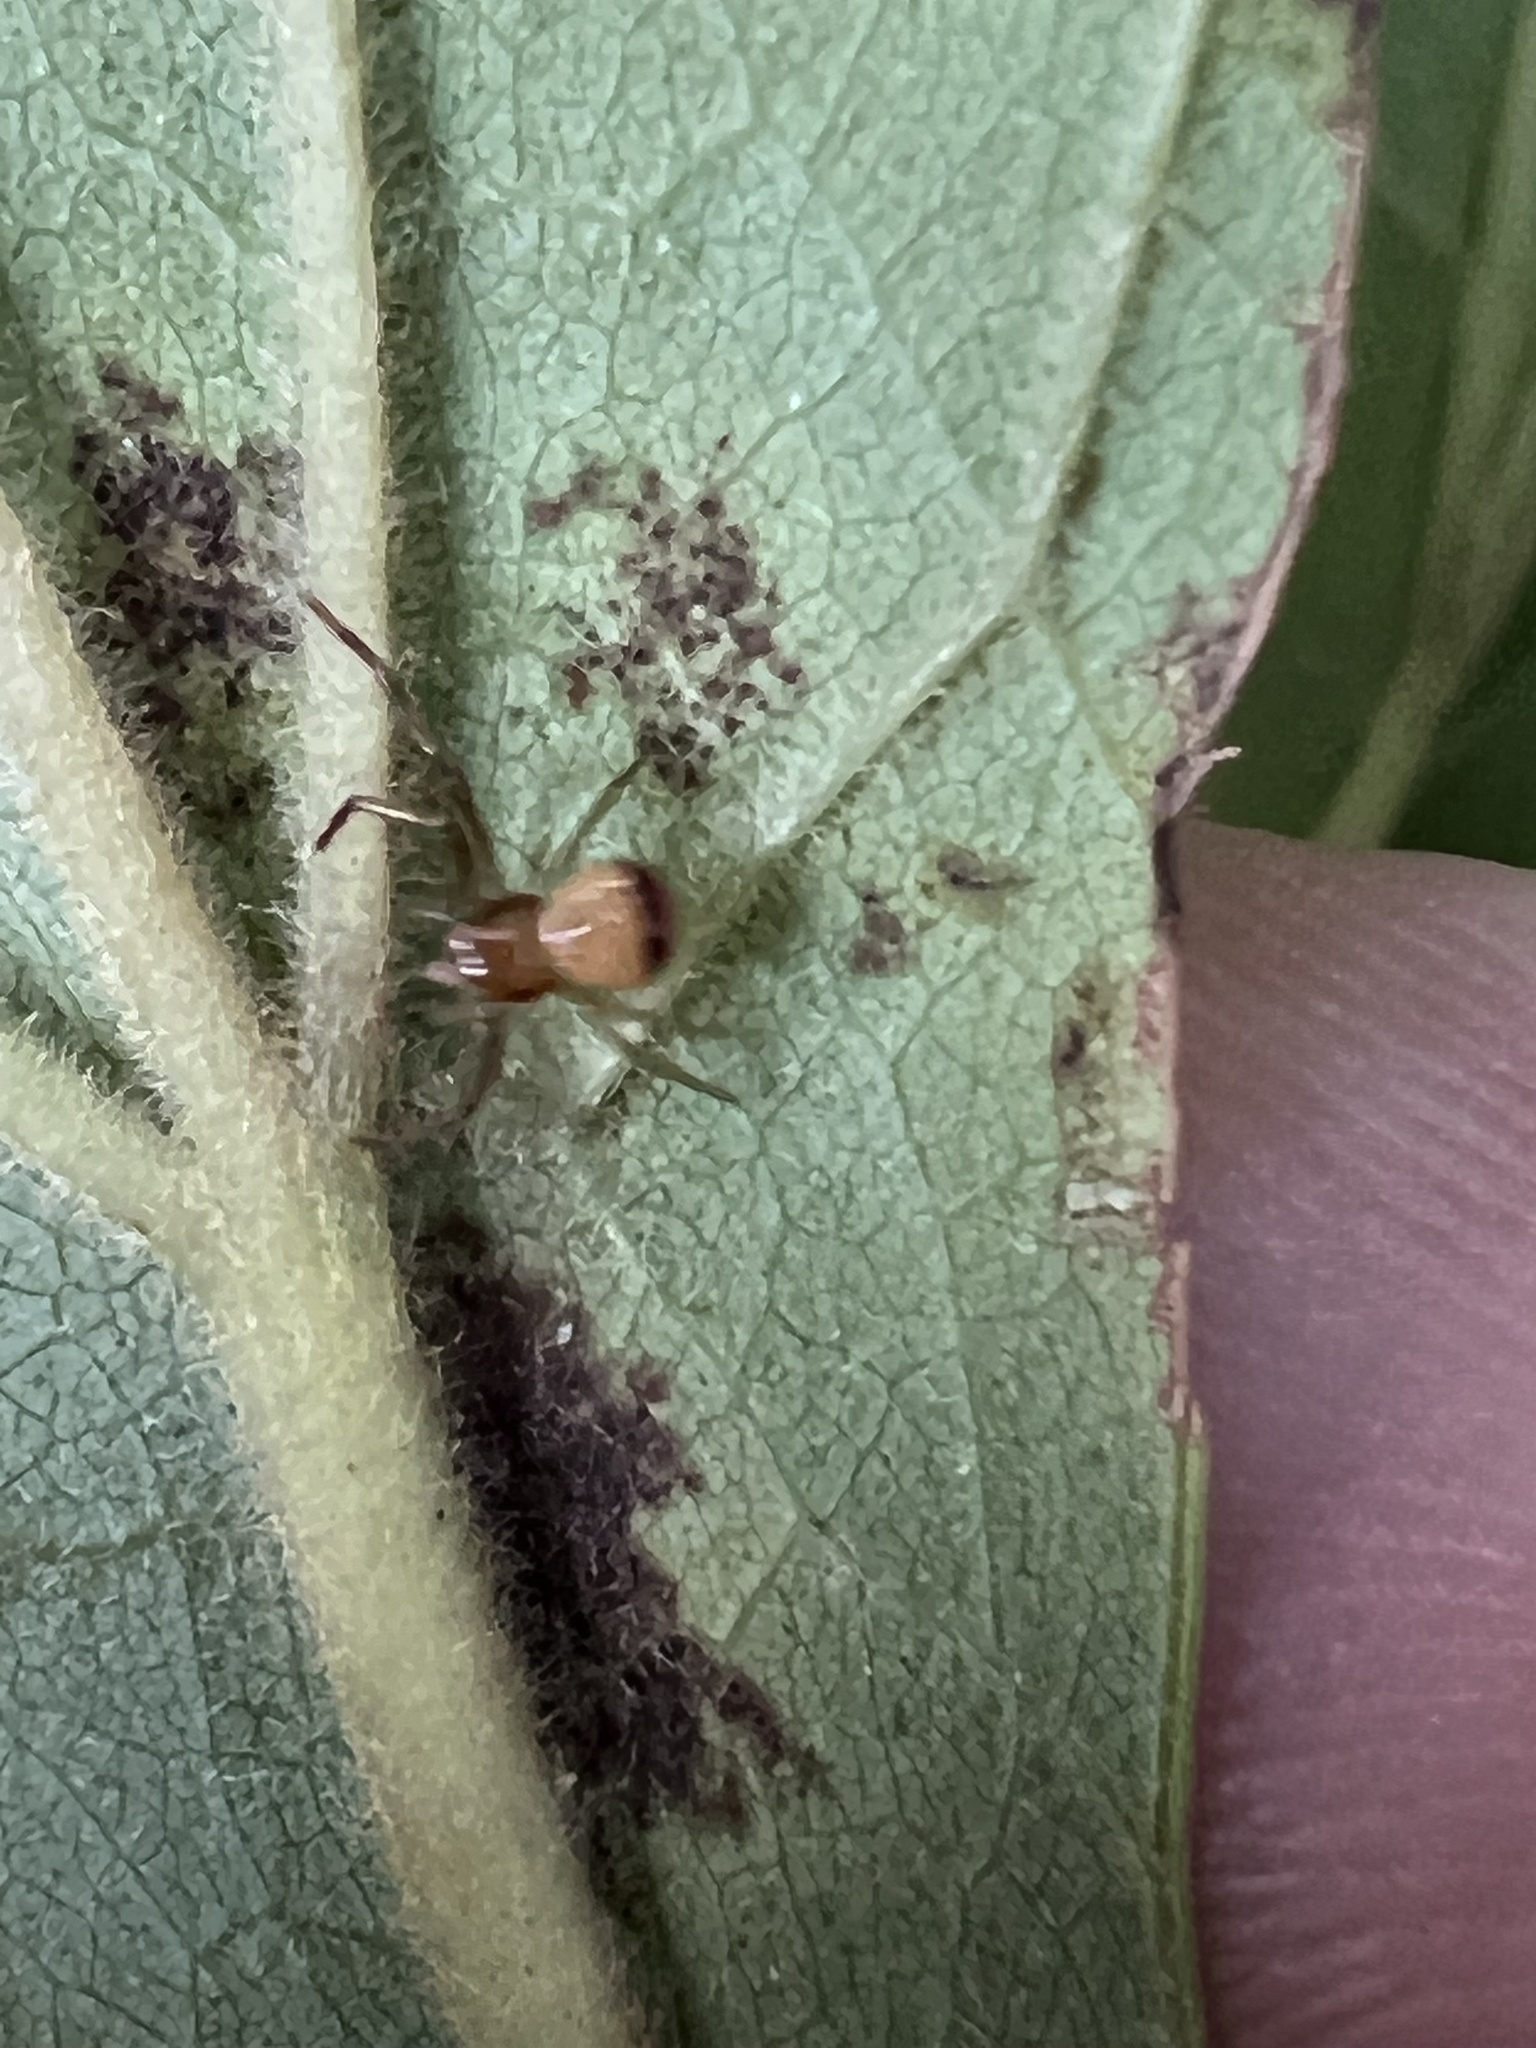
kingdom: Animalia
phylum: Arthropoda
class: Arachnida
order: Araneae
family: Thomisidae
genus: Synema
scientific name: Synema parvulum
